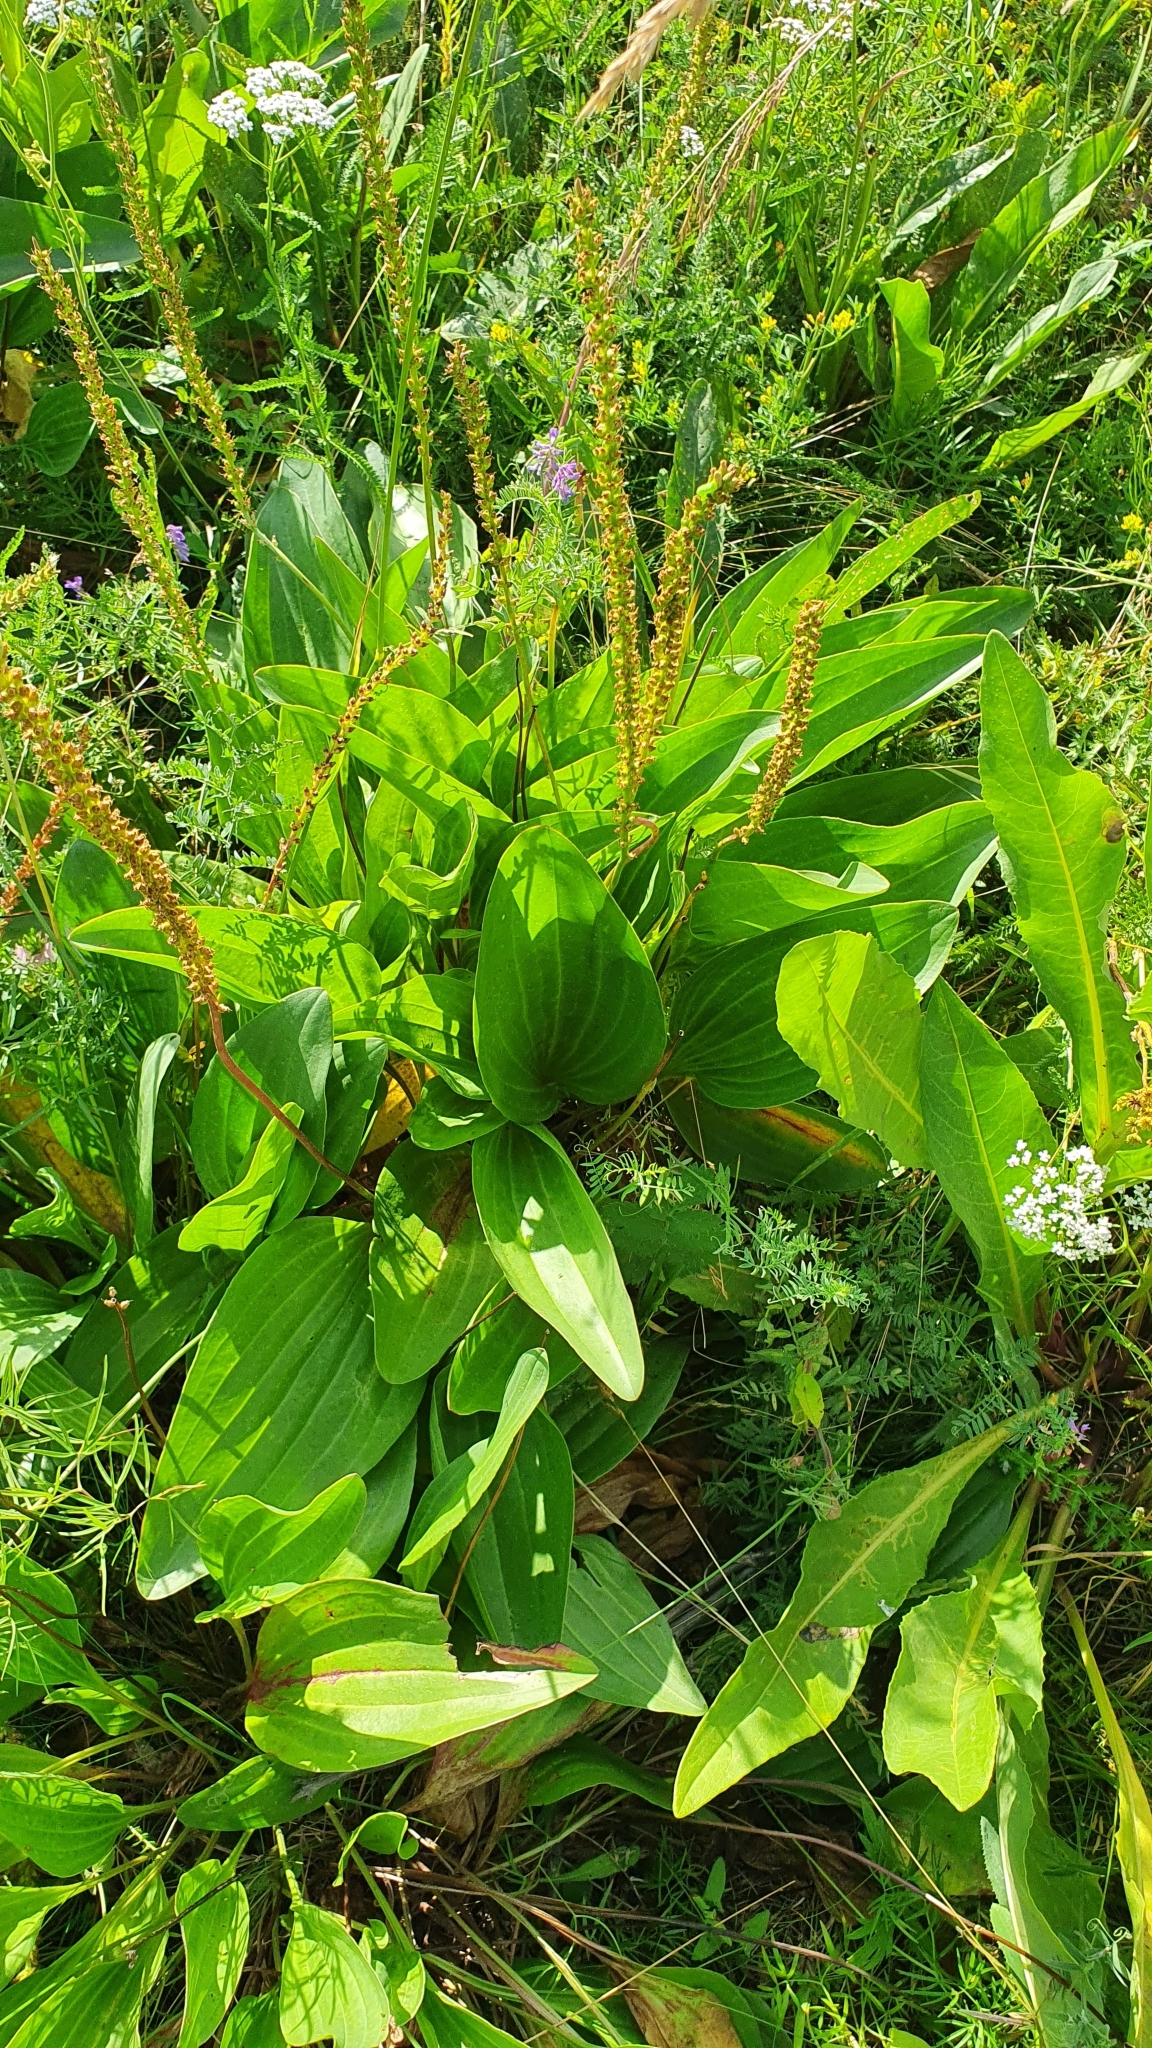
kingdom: Plantae
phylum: Tracheophyta
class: Magnoliopsida
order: Lamiales
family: Plantaginaceae
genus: Plantago
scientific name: Plantago cornuti
